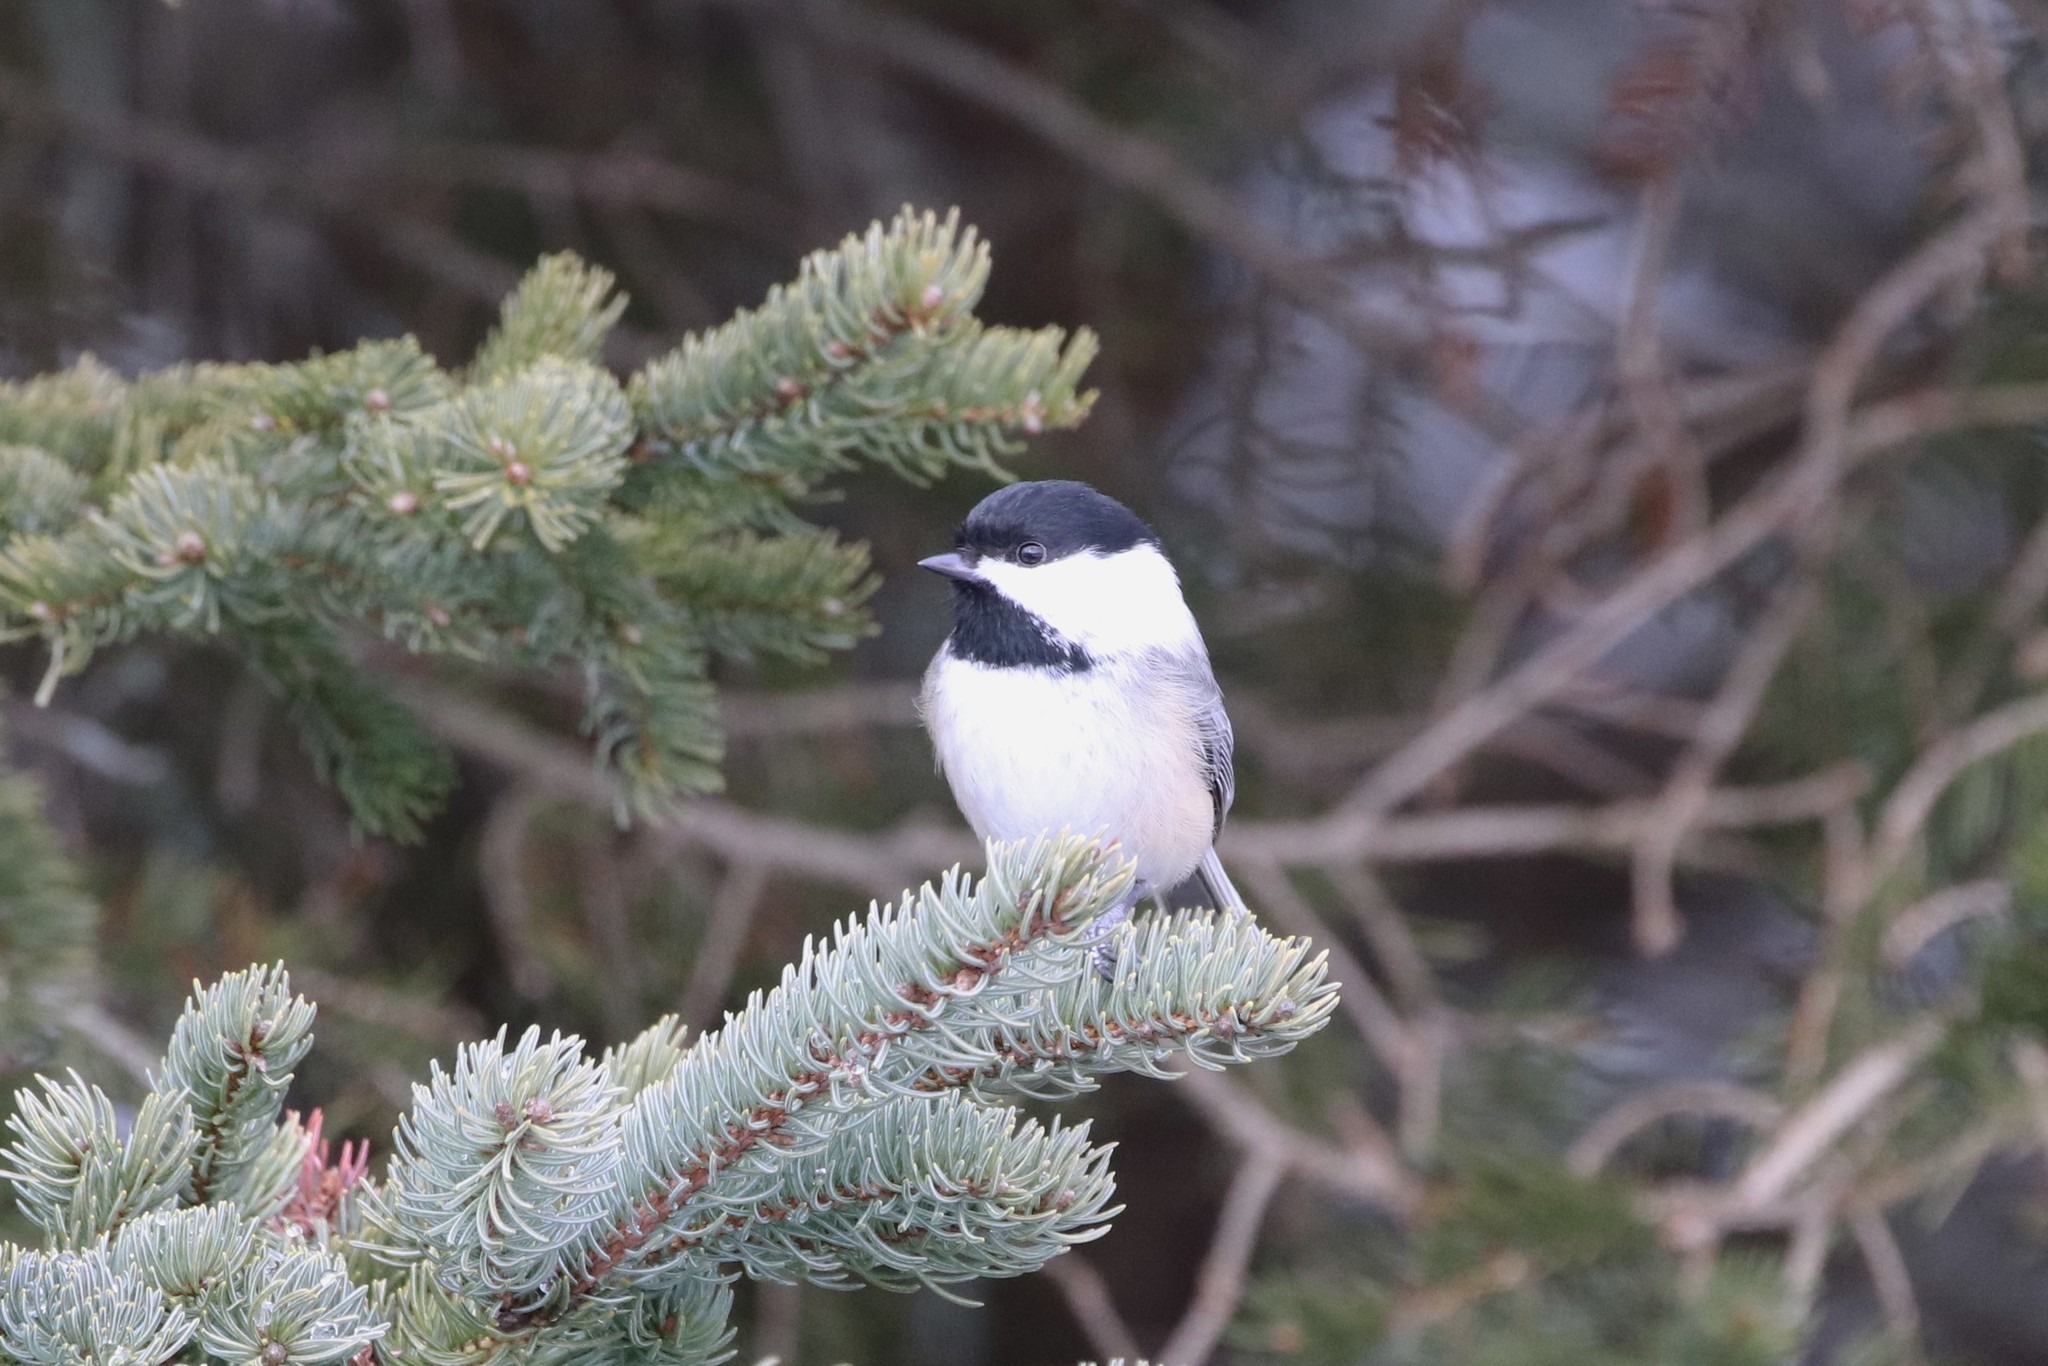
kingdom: Animalia
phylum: Chordata
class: Aves
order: Passeriformes
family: Paridae
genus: Poecile
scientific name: Poecile atricapillus
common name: Black-capped chickadee
